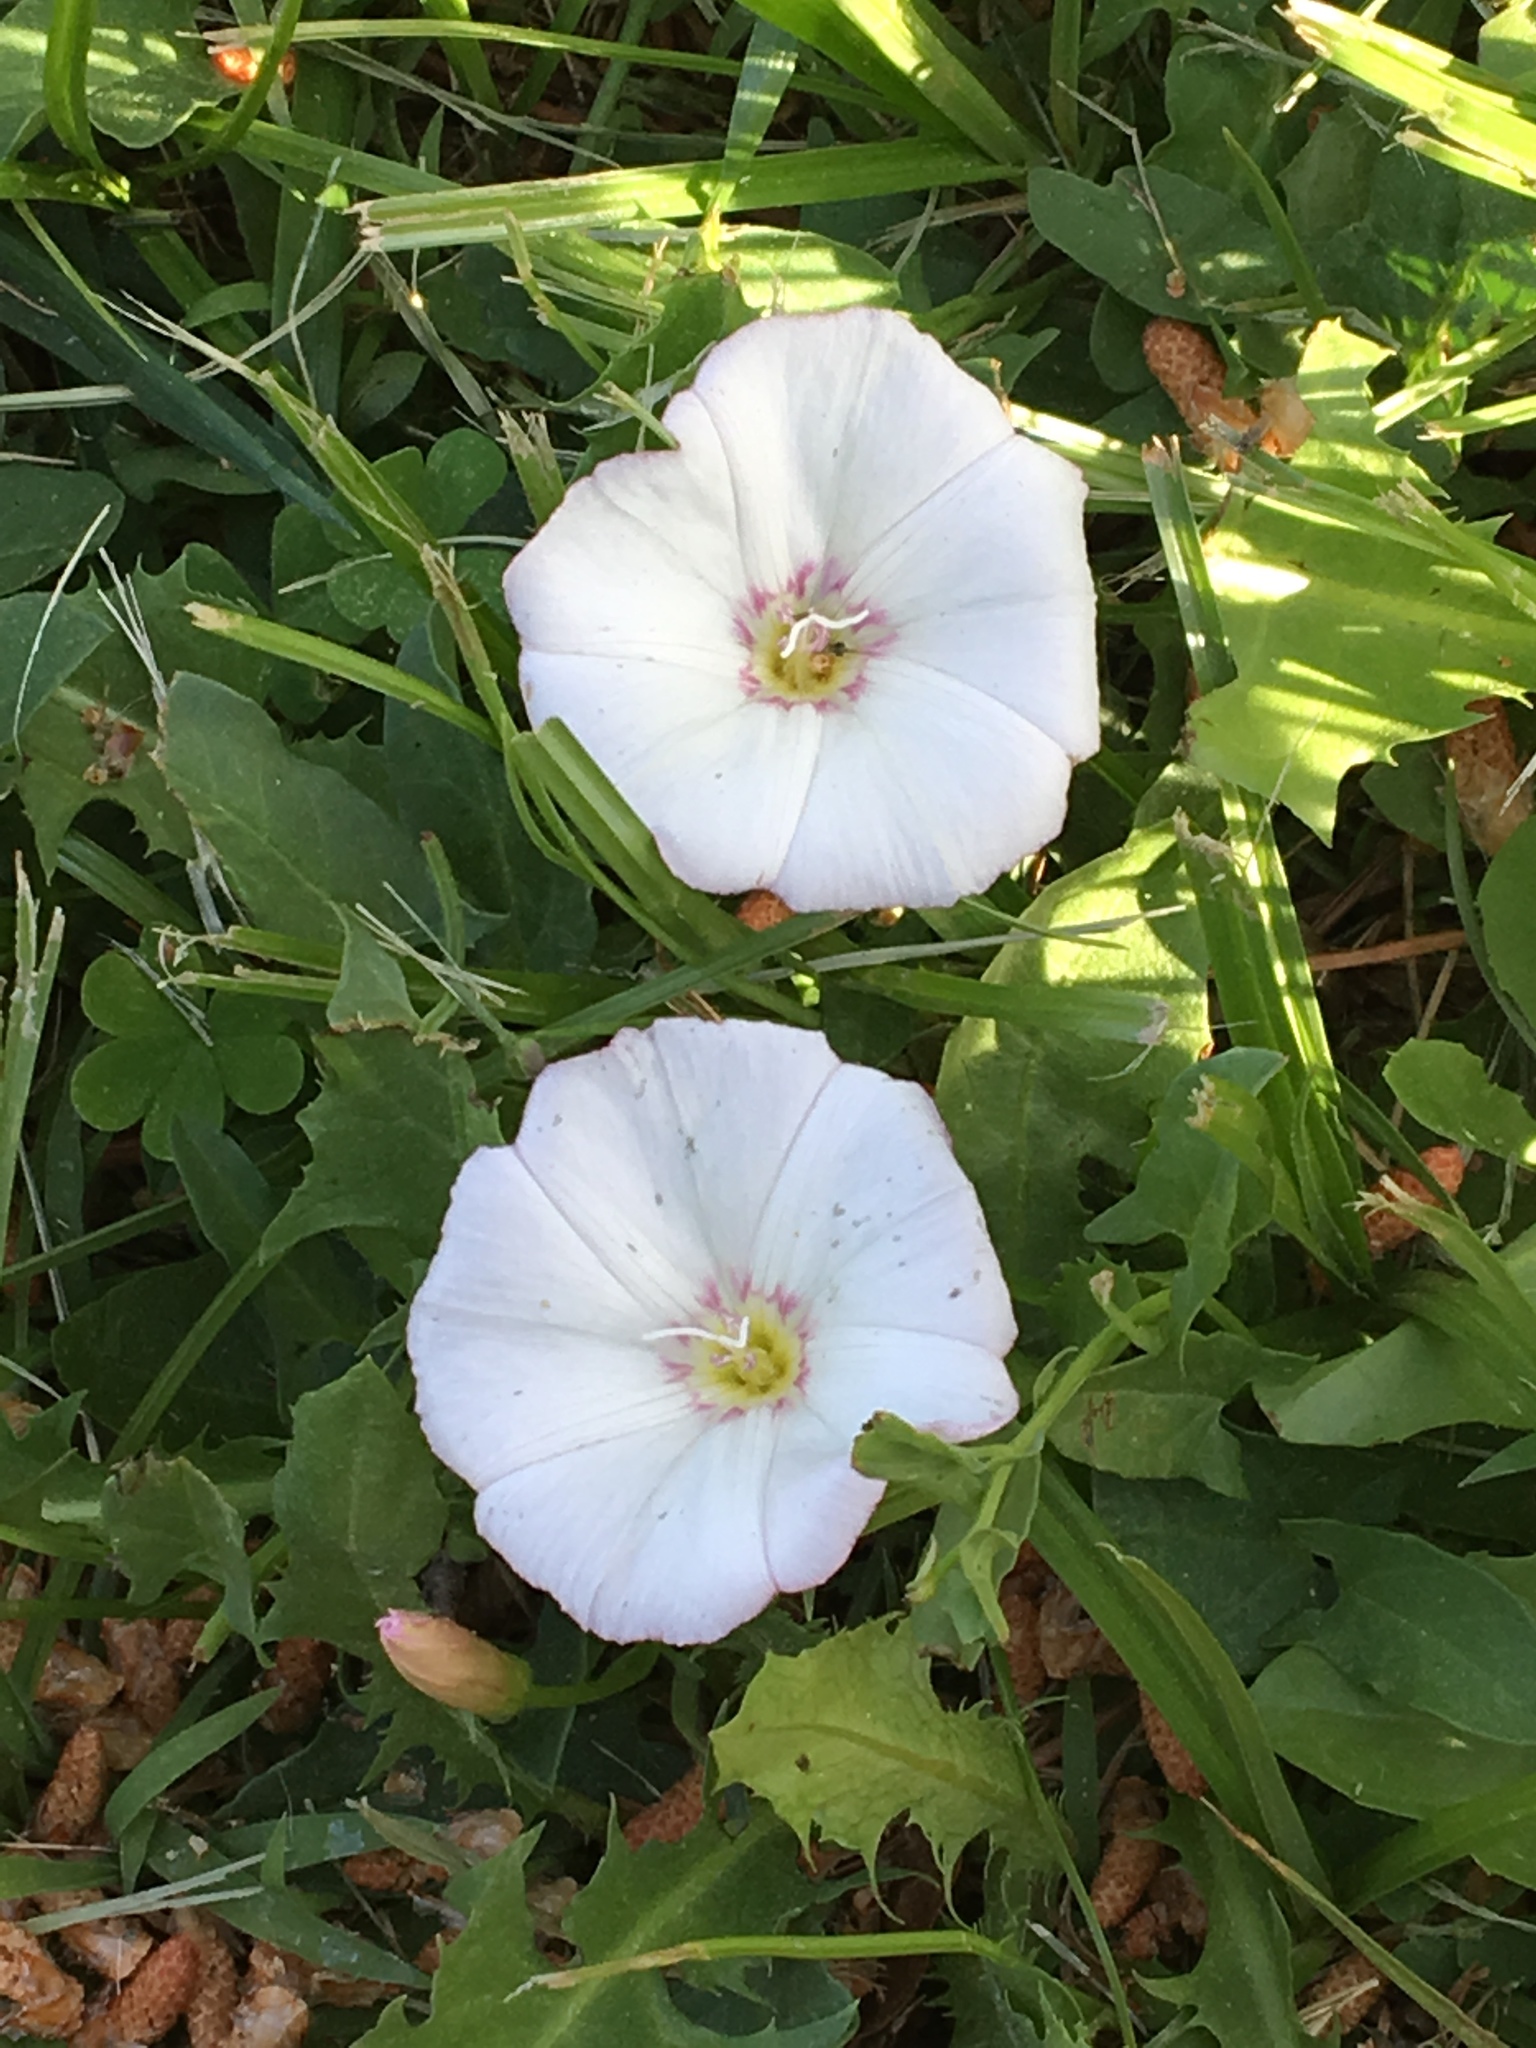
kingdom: Plantae
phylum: Tracheophyta
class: Magnoliopsida
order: Solanales
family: Convolvulaceae
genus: Convolvulus
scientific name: Convolvulus arvensis
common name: Field bindweed
